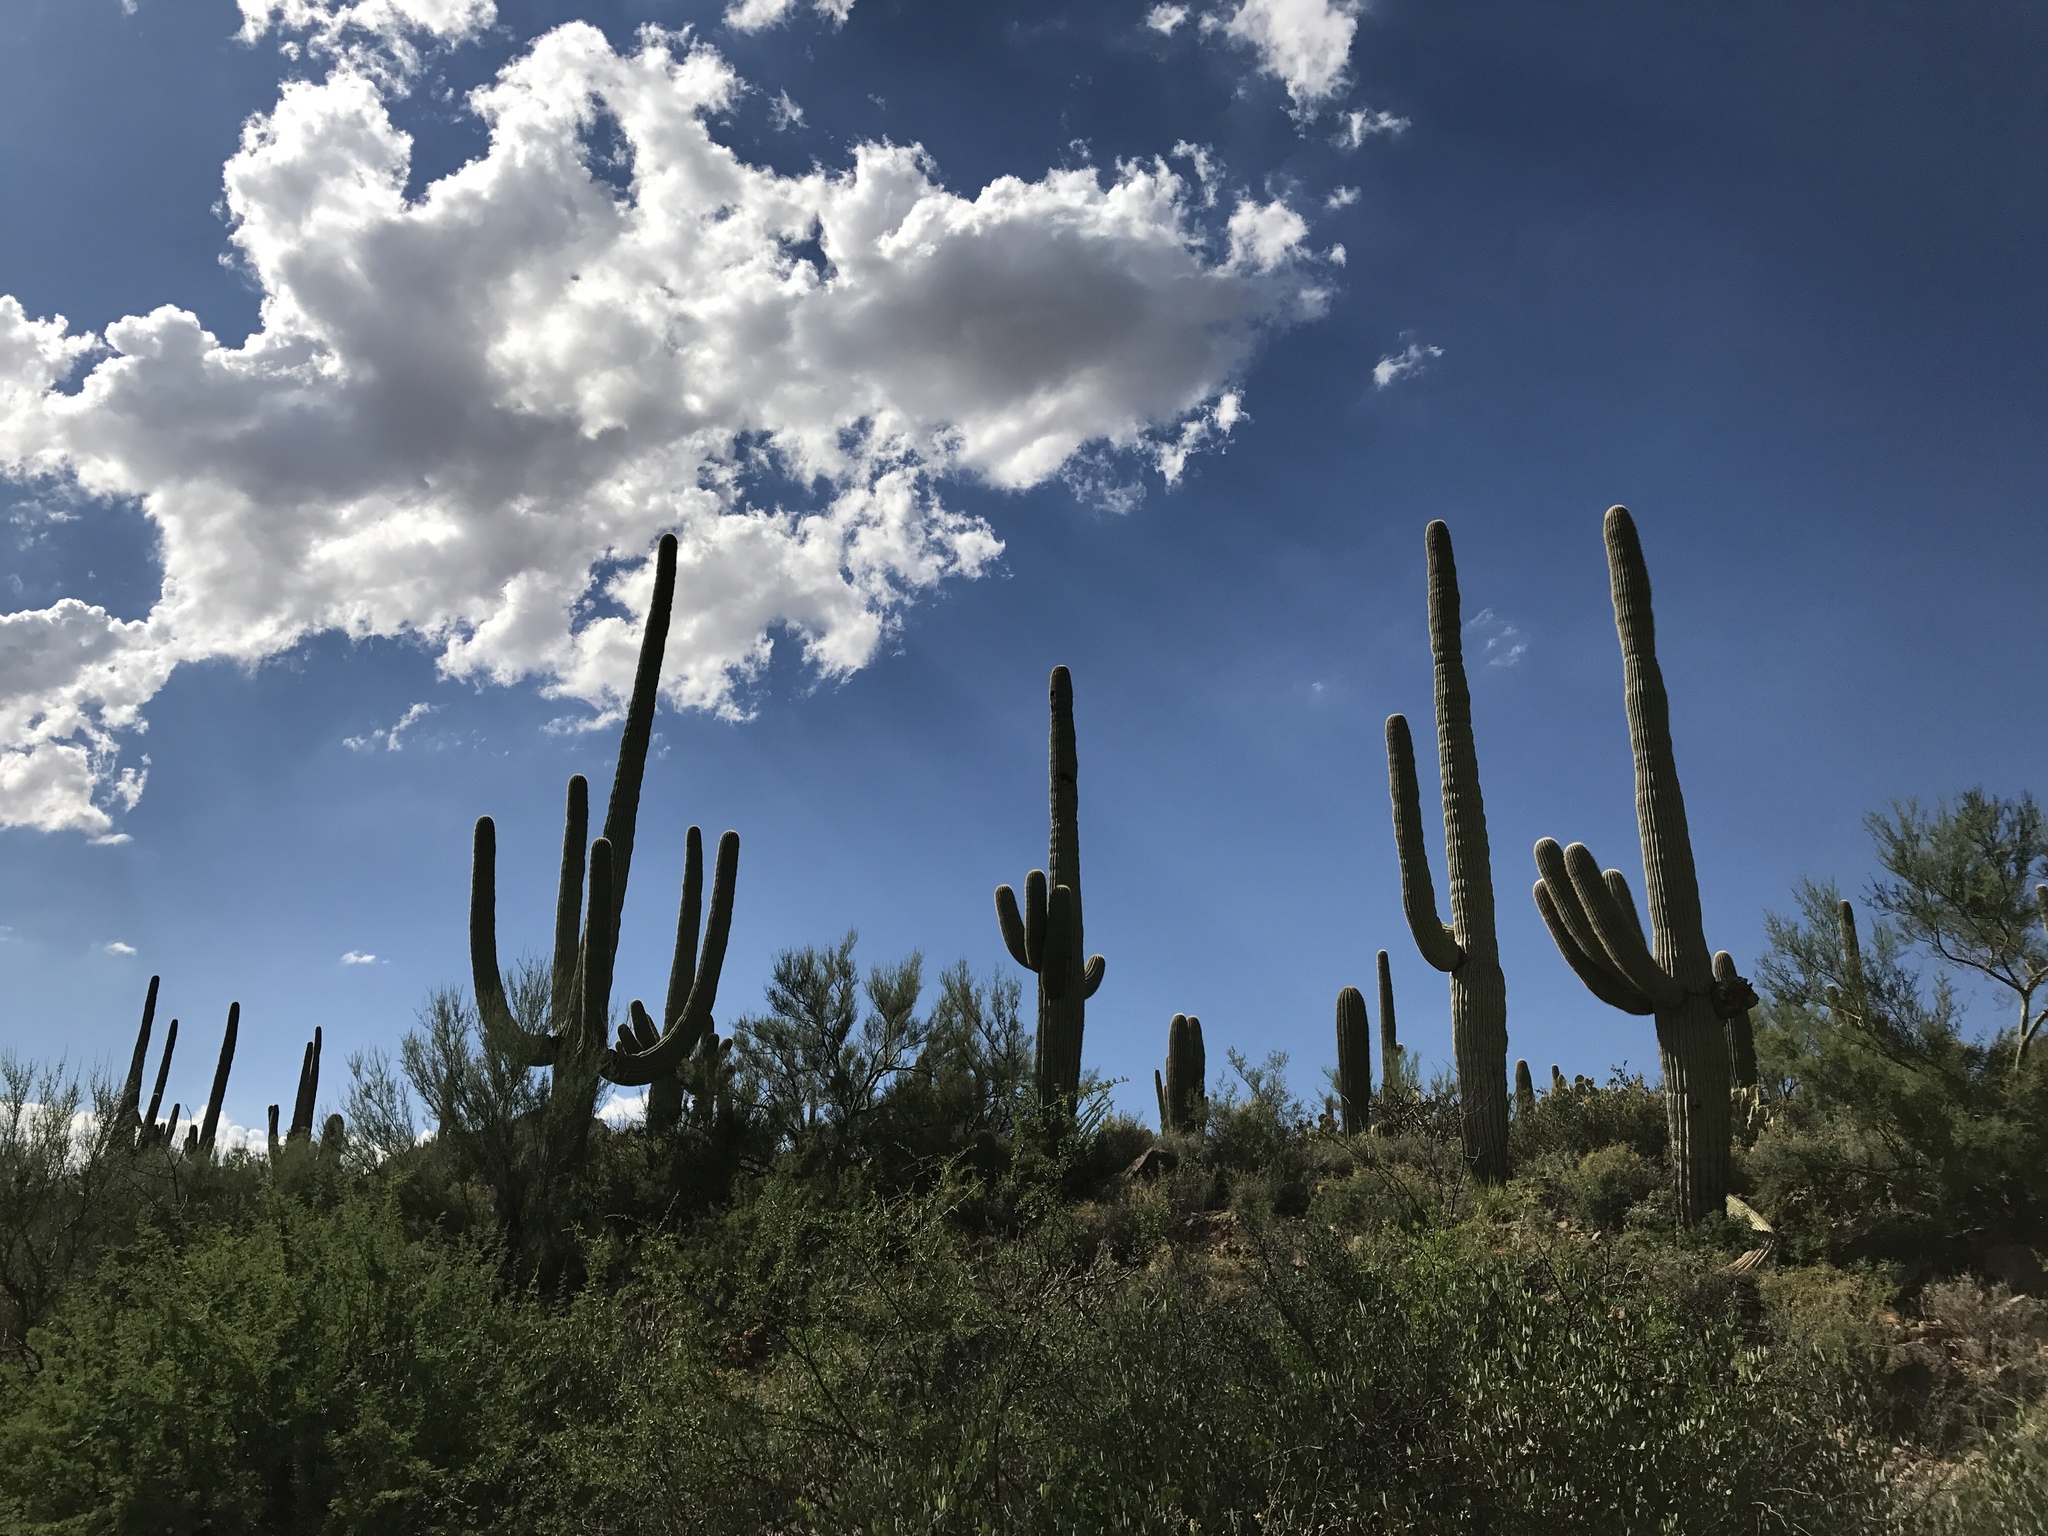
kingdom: Plantae
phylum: Tracheophyta
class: Magnoliopsida
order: Caryophyllales
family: Cactaceae
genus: Carnegiea
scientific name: Carnegiea gigantea
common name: Saguaro
